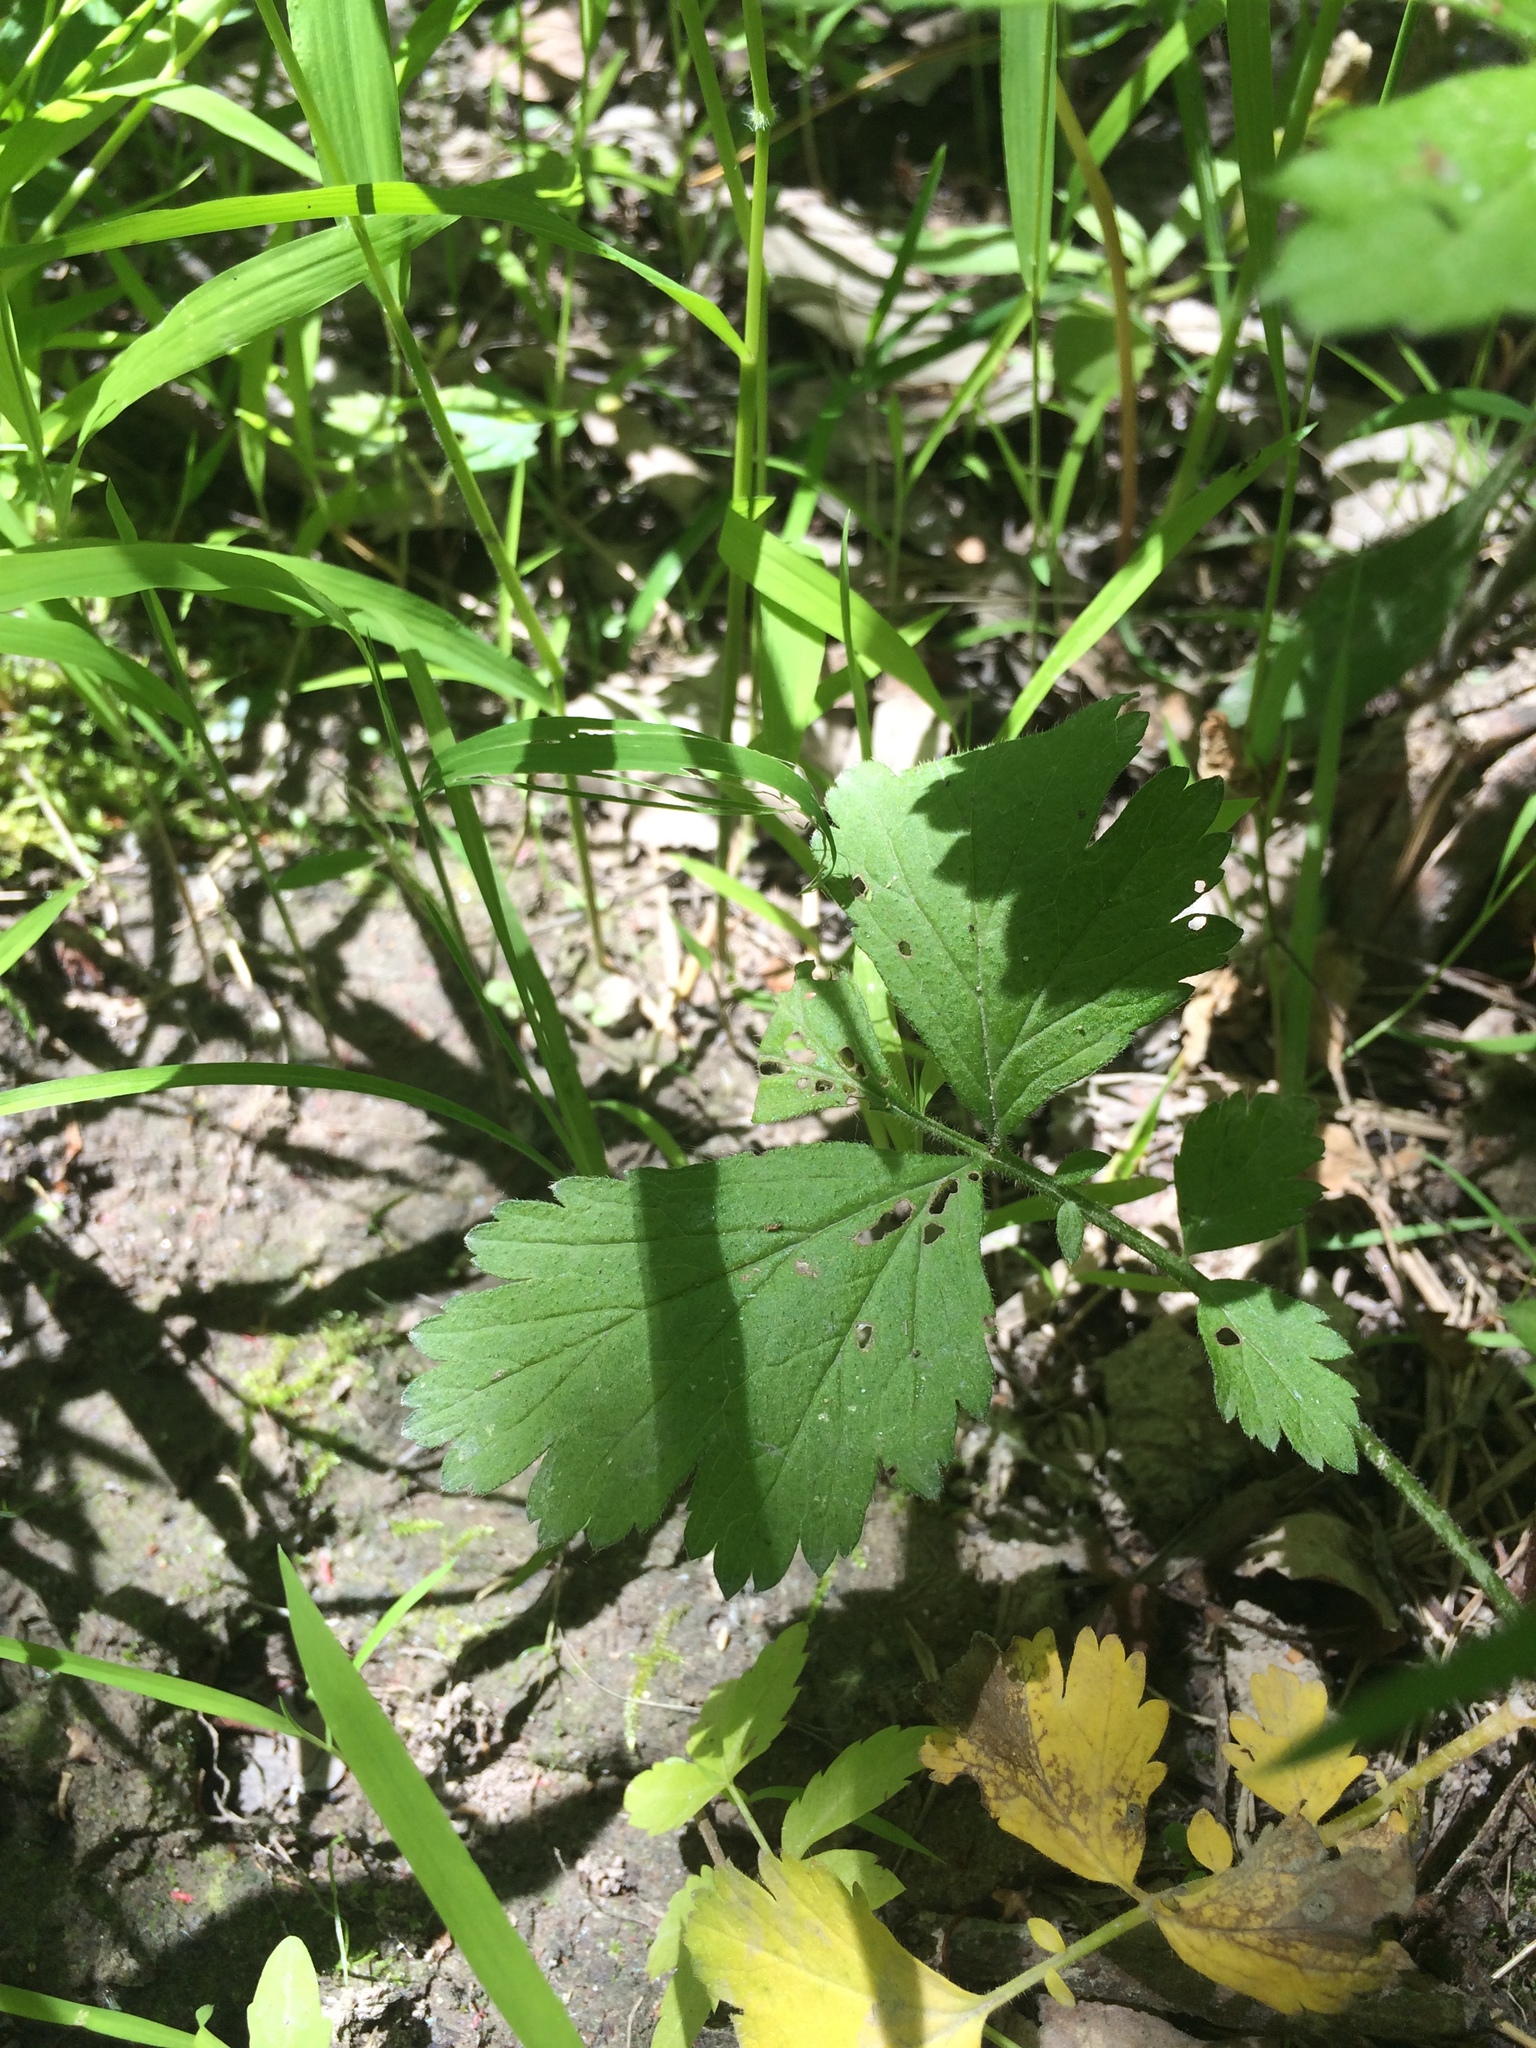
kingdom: Plantae
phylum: Tracheophyta
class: Magnoliopsida
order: Rosales
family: Rosaceae
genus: Geum
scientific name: Geum canadense
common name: White avens
